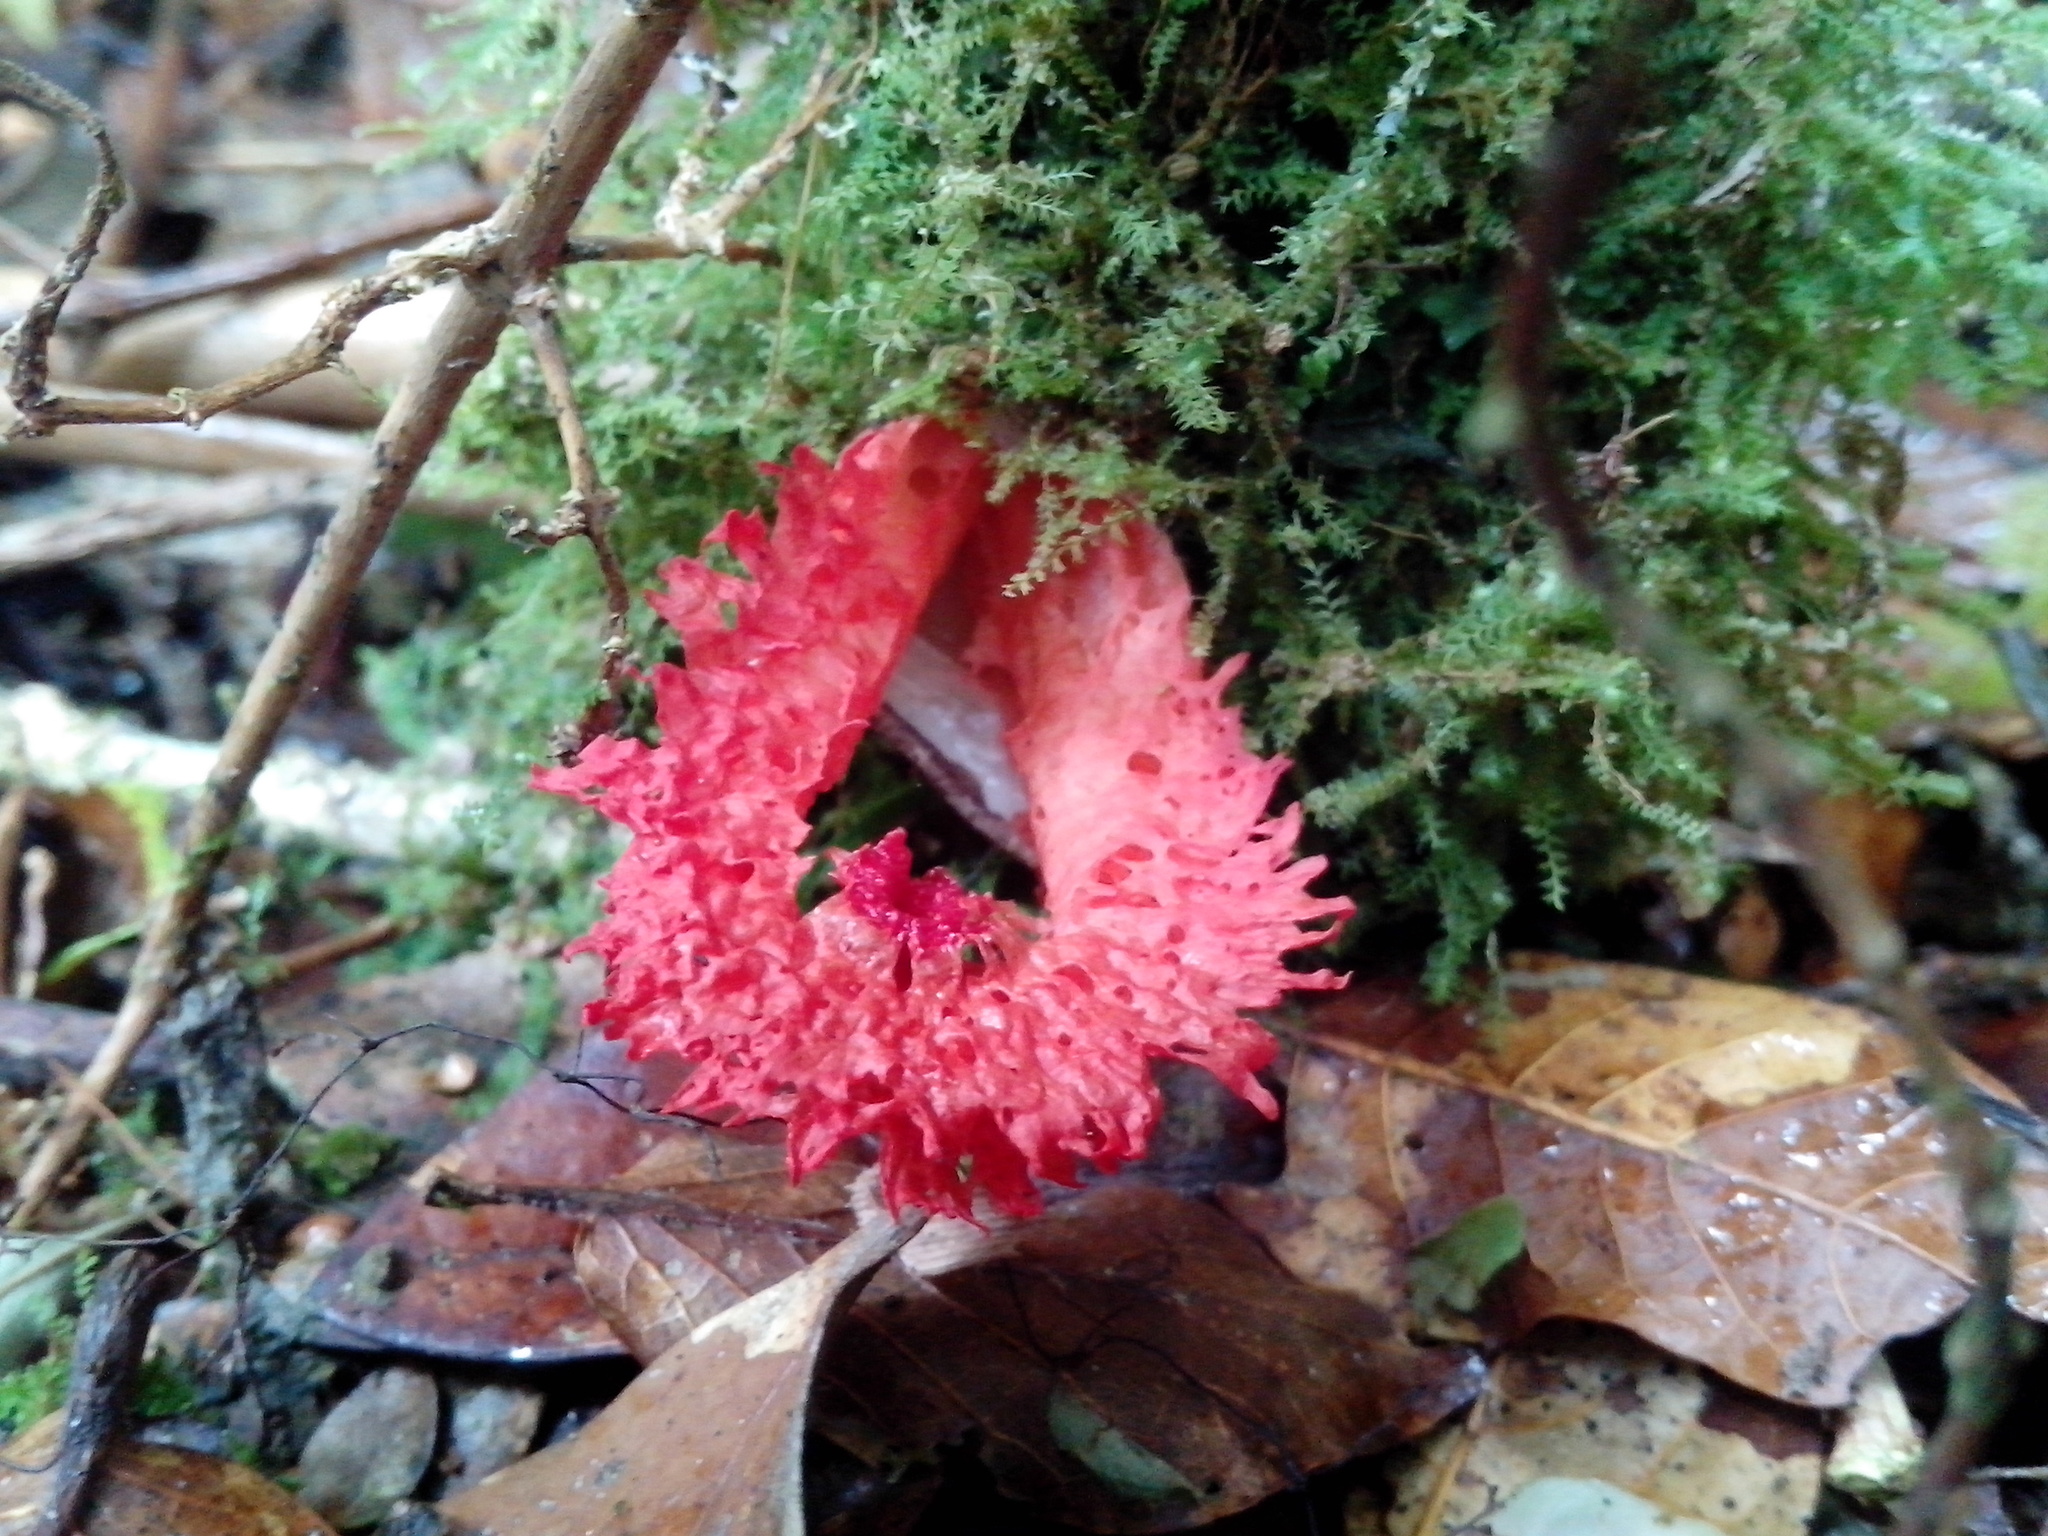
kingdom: Fungi
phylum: Basidiomycota
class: Agaricomycetes
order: Phallales
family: Phallaceae
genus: Laternea
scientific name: Laternea pusilla
